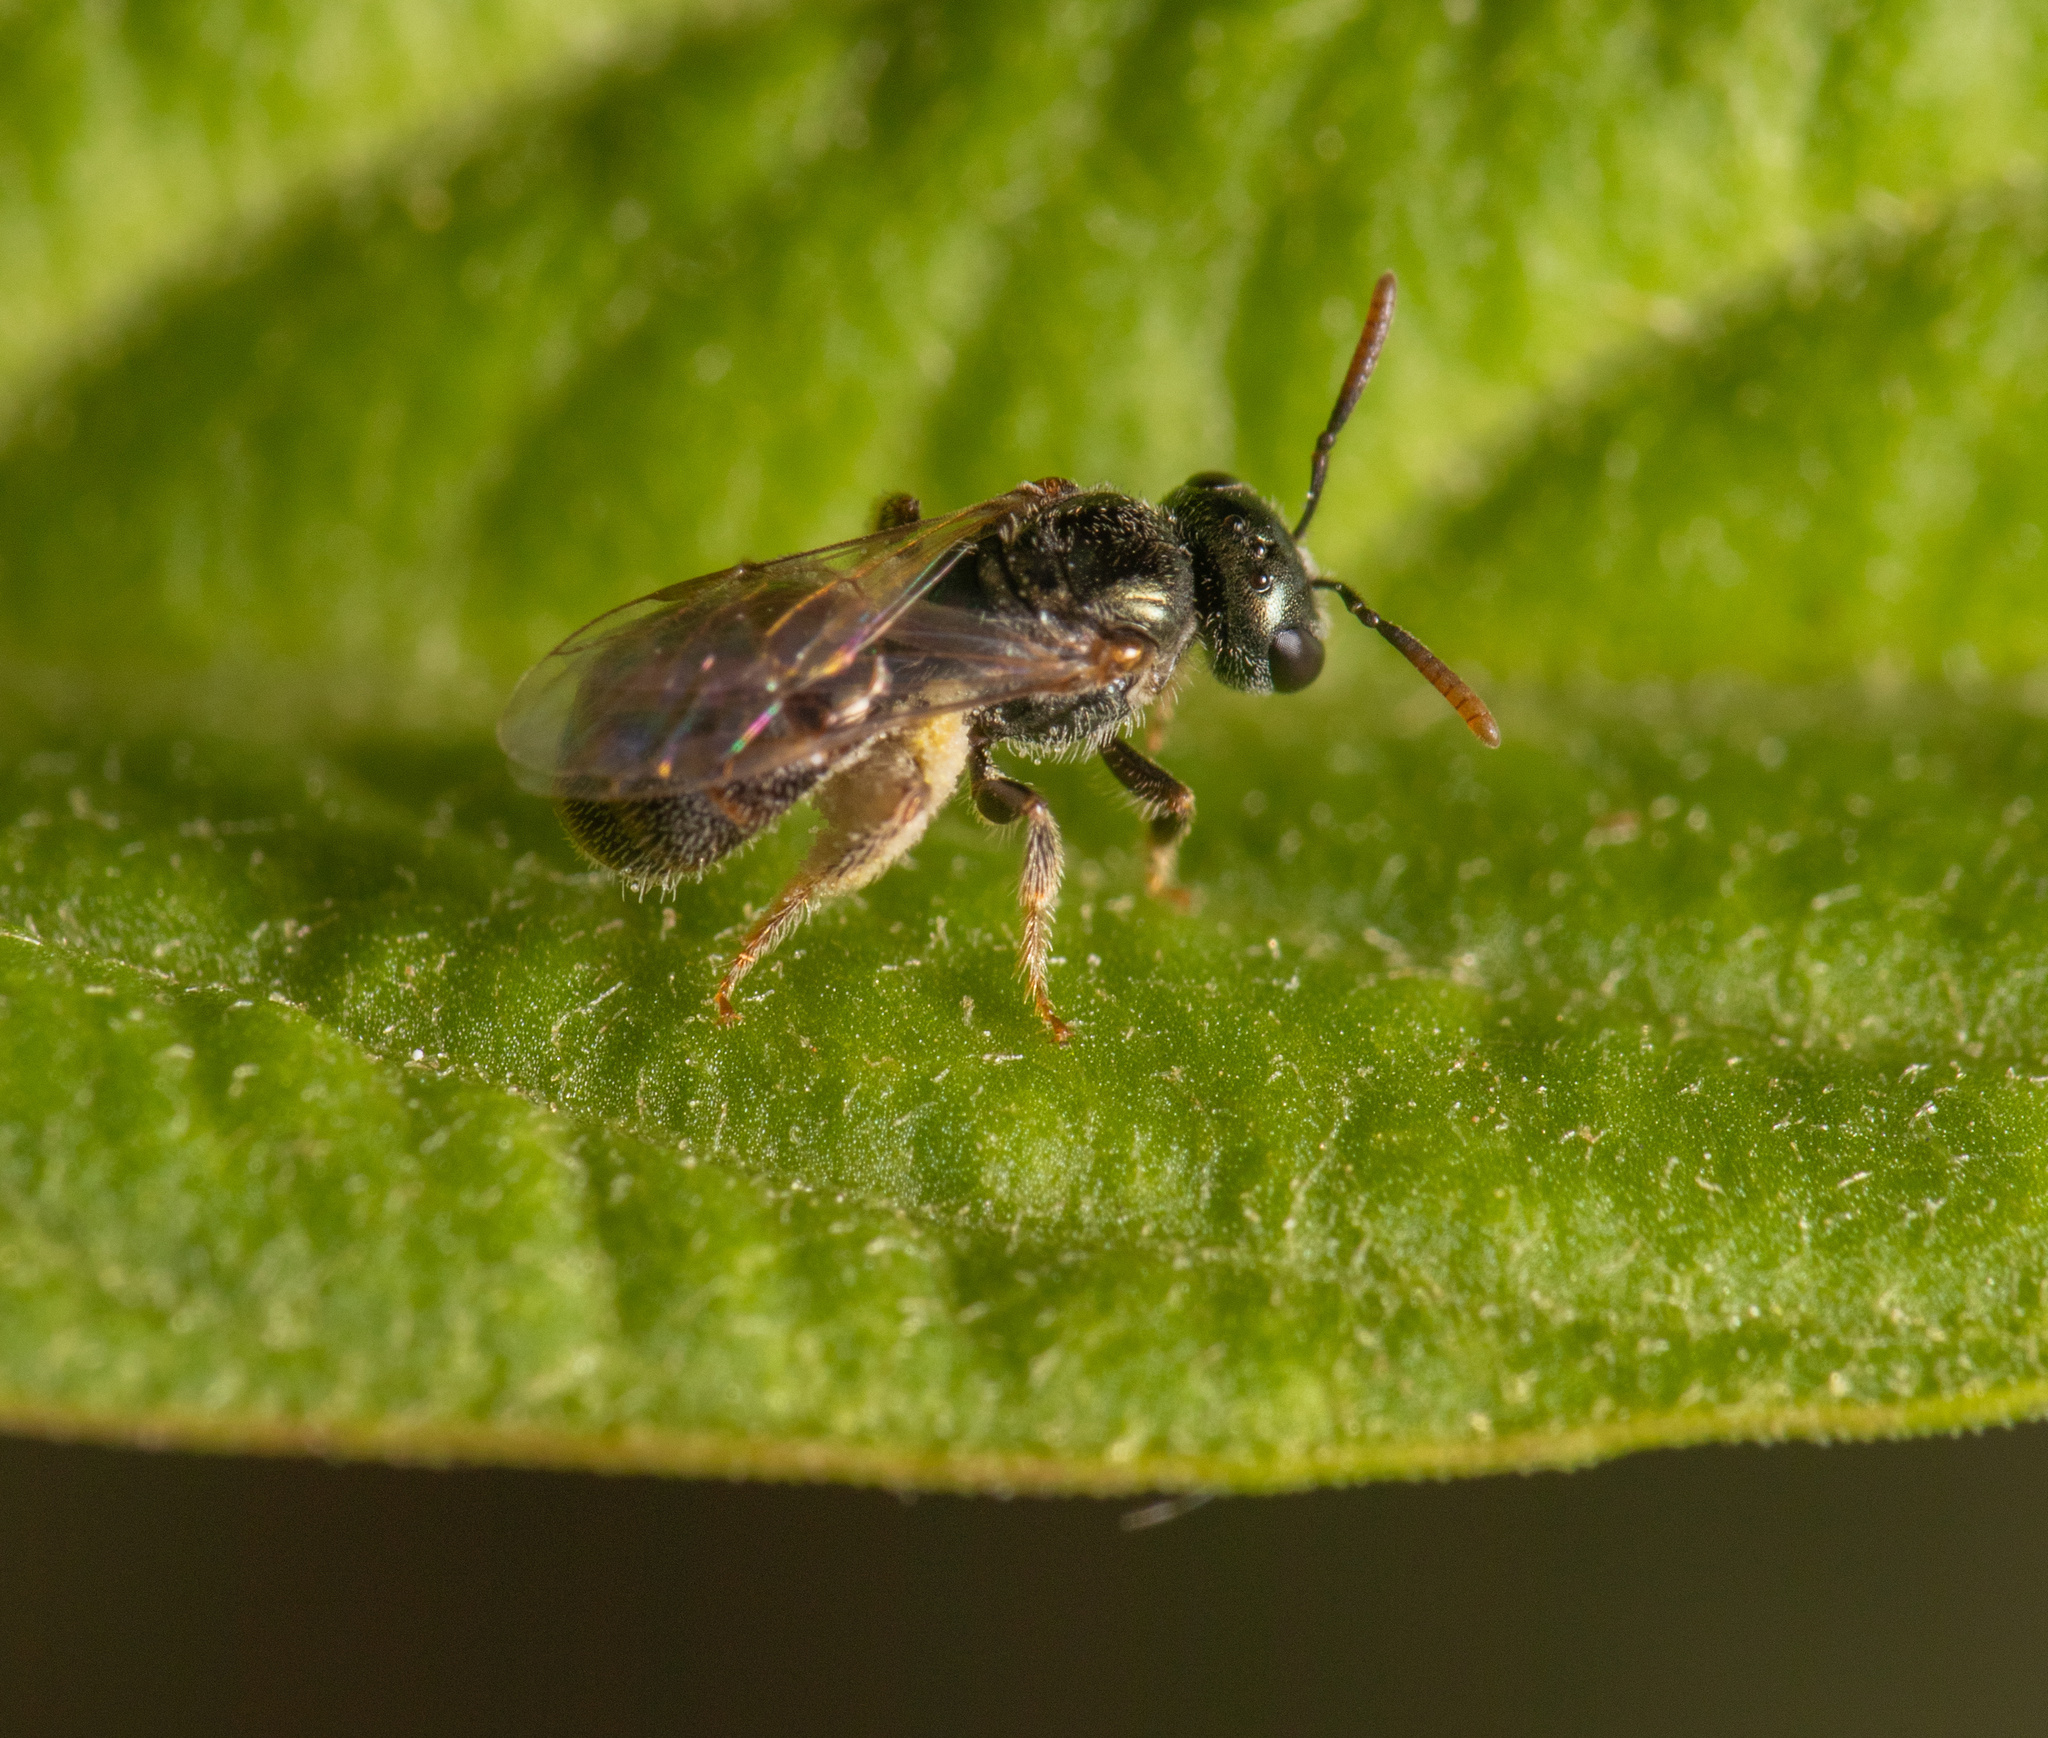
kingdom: Animalia
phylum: Arthropoda
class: Insecta
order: Hymenoptera
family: Halictidae
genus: Lasioglossum
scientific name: Lasioglossum imitatum
